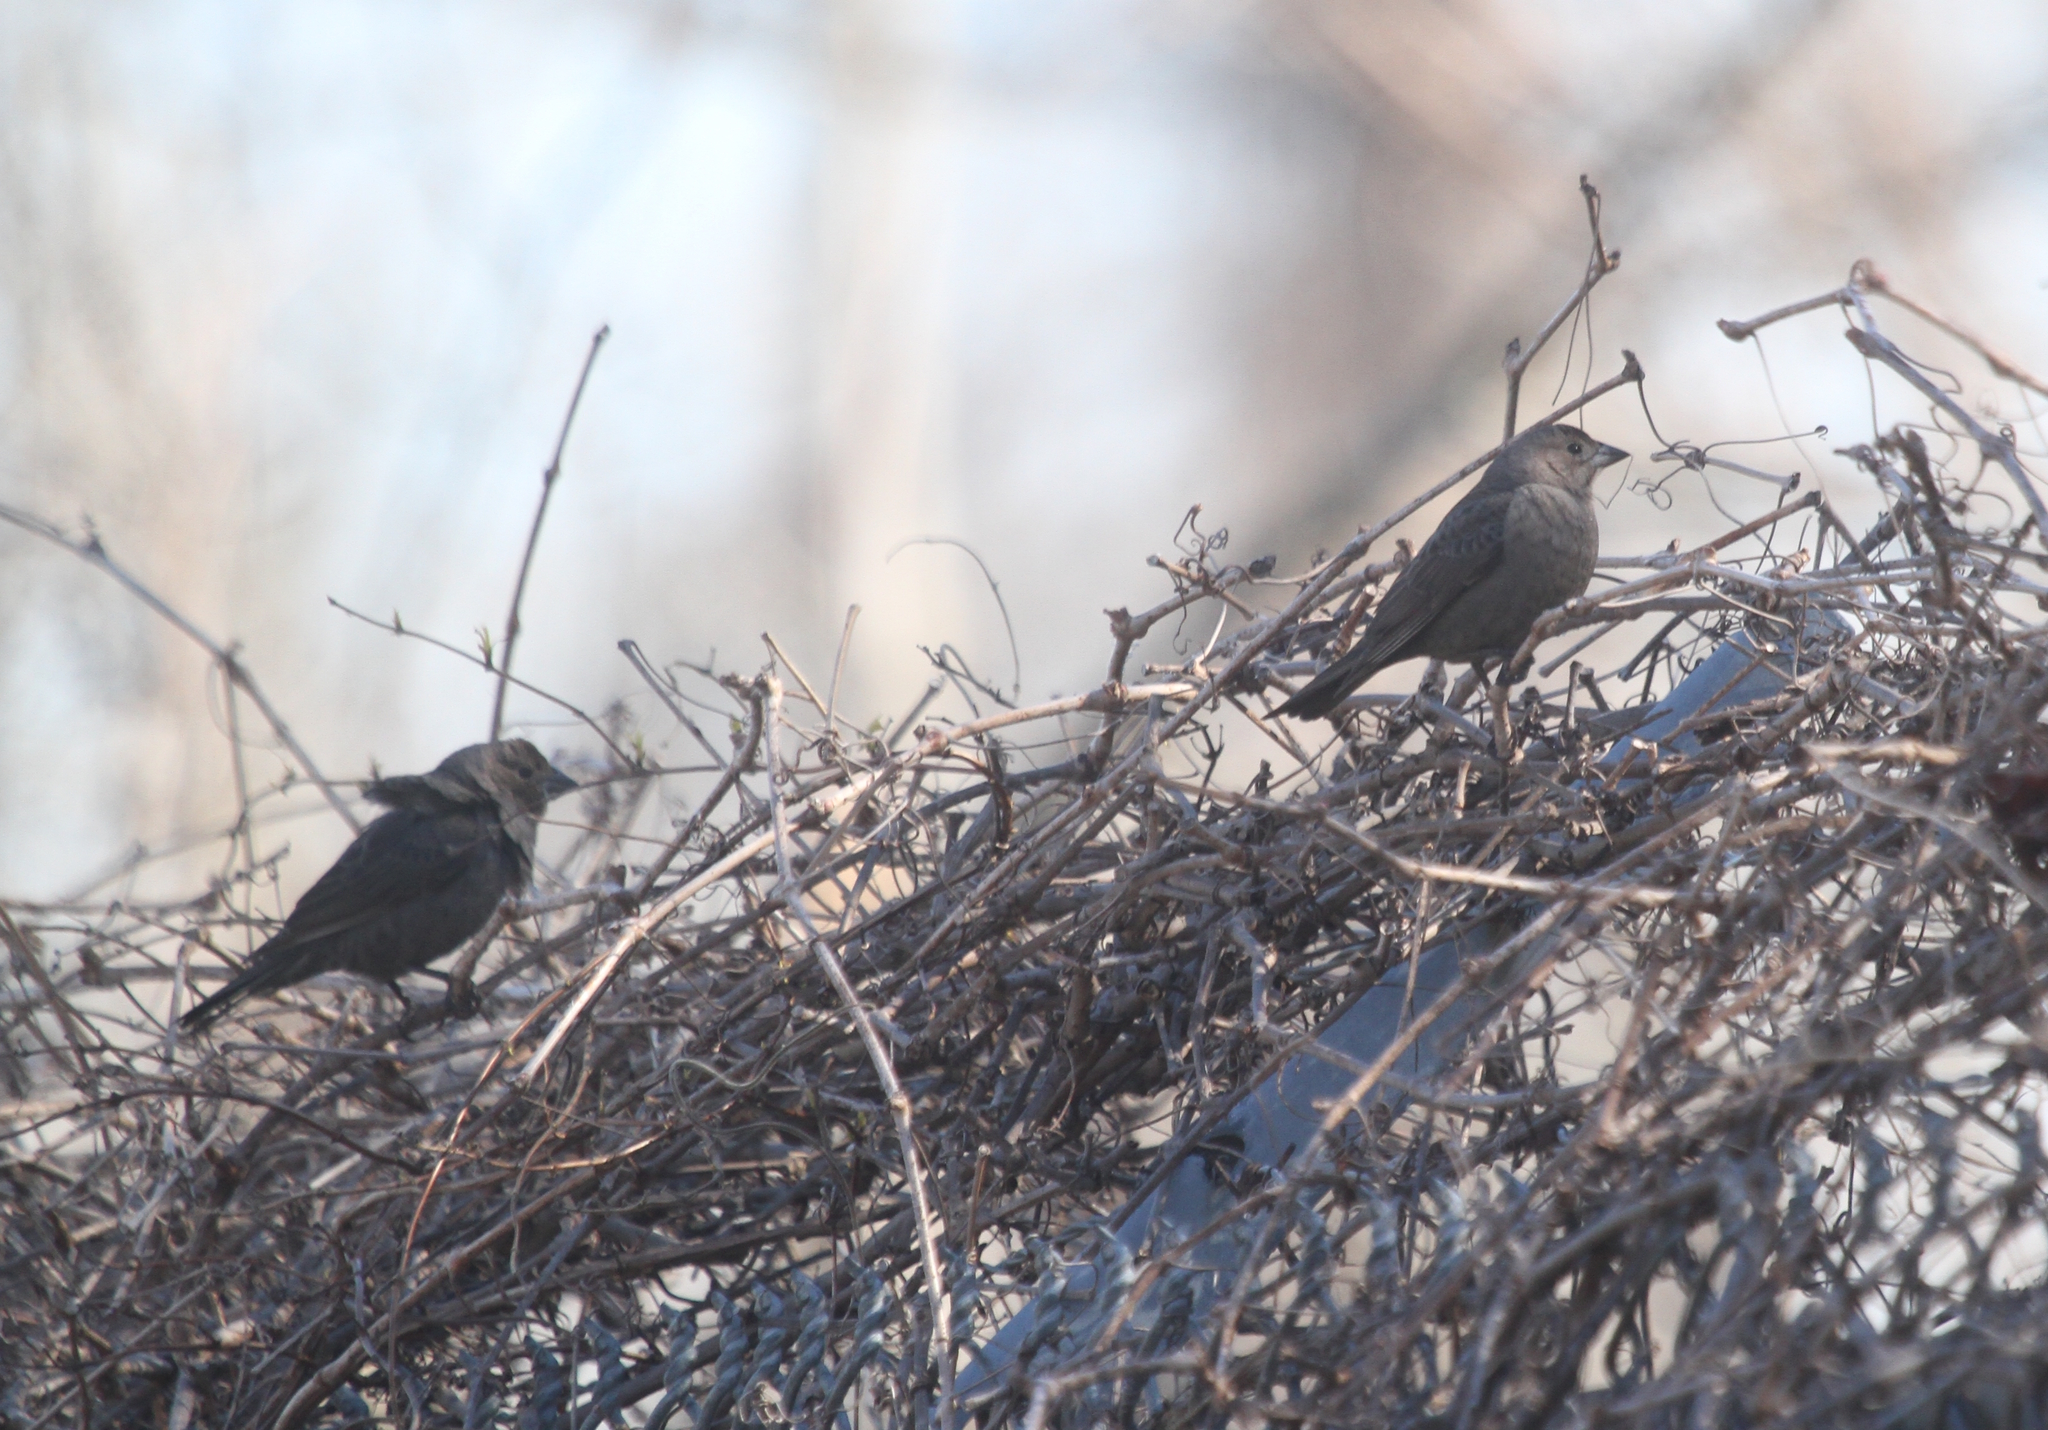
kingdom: Animalia
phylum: Chordata
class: Aves
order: Passeriformes
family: Icteridae
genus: Molothrus
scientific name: Molothrus ater
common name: Brown-headed cowbird
